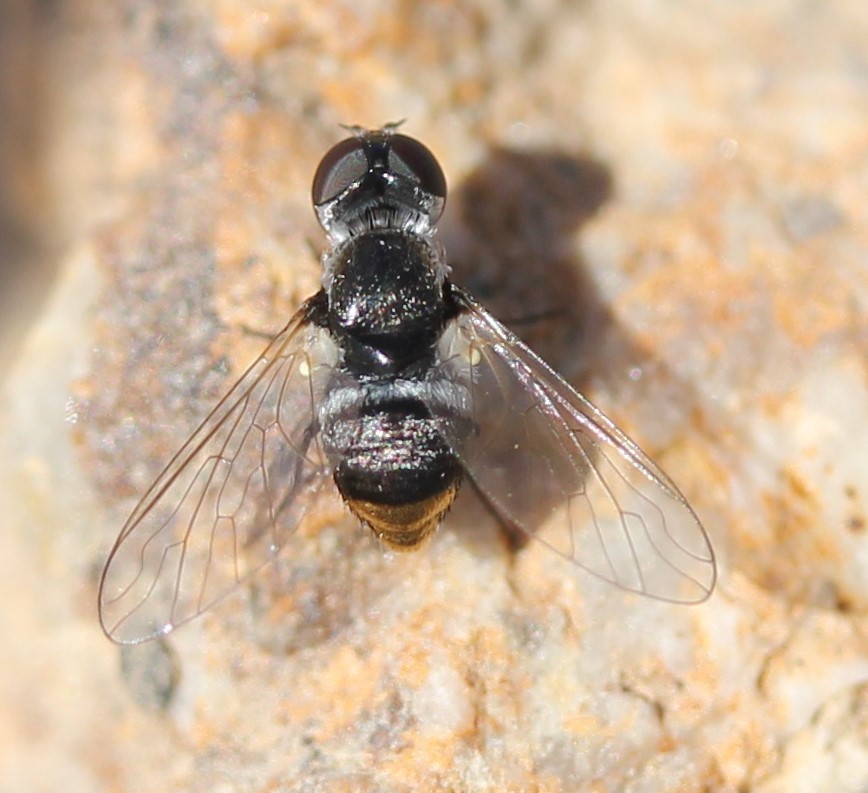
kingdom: Animalia
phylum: Arthropoda
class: Insecta
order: Diptera
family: Bombyliidae
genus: Astrophanes
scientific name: Astrophanes adonis
